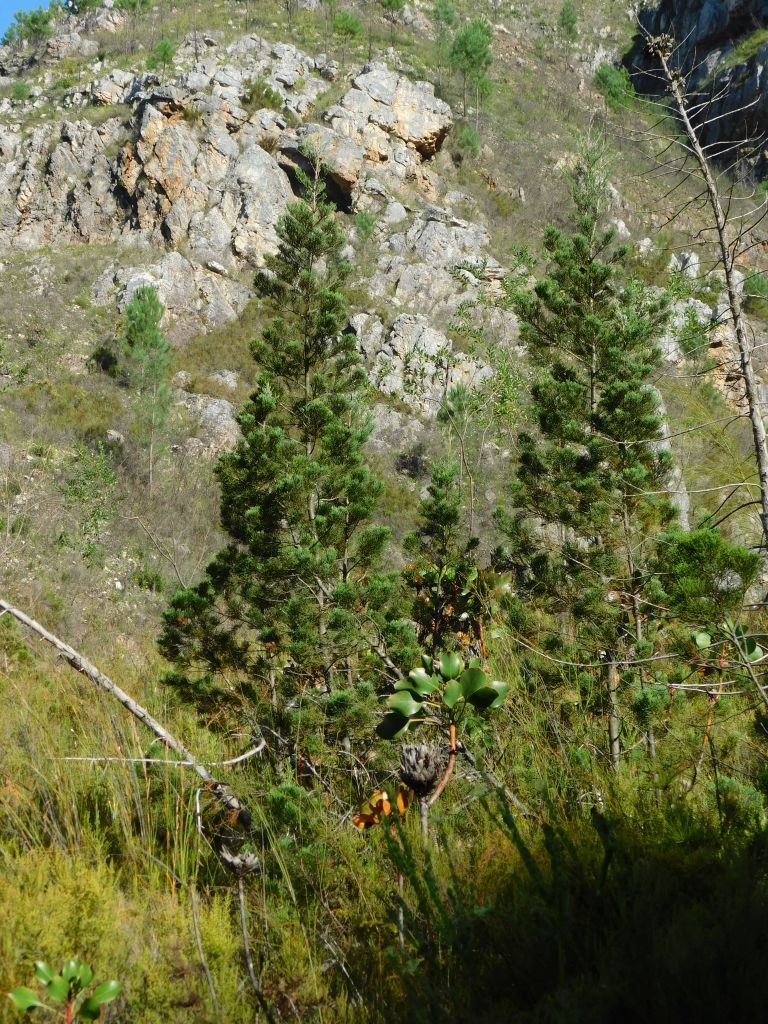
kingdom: Plantae
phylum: Tracheophyta
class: Pinopsida
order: Pinales
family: Cupressaceae
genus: Widdringtonia
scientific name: Widdringtonia nodiflora
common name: Cape cypress
